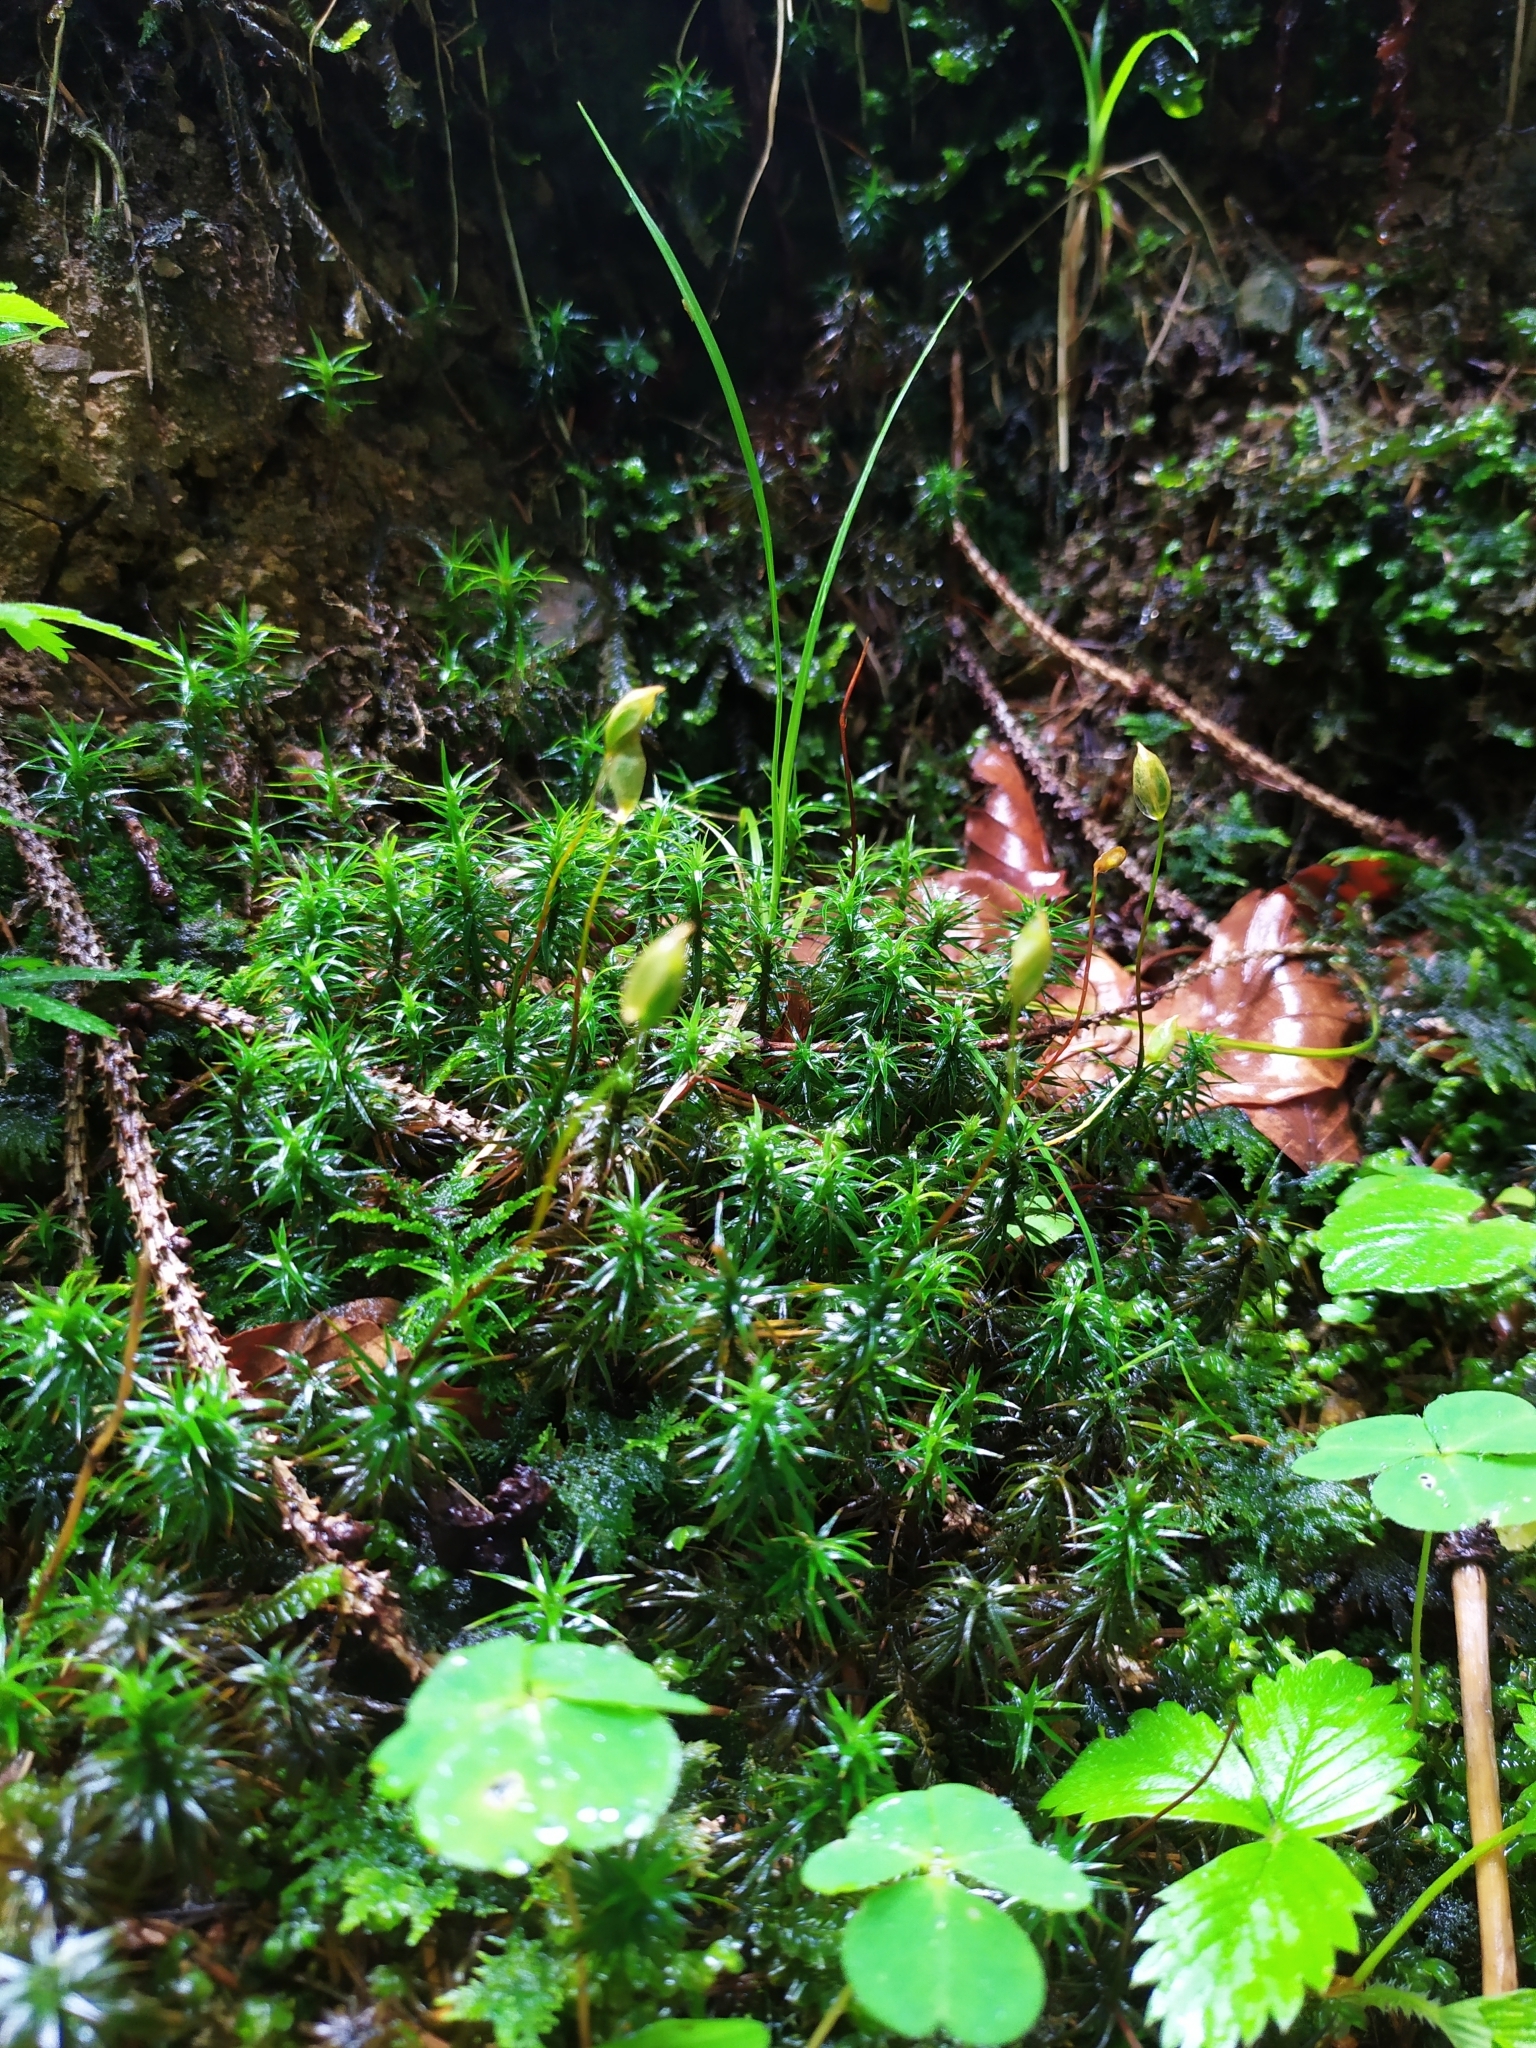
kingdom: Plantae
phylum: Bryophyta
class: Polytrichopsida
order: Polytrichales
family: Polytrichaceae
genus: Polytrichum
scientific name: Polytrichum formosum
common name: Bank haircap moss
